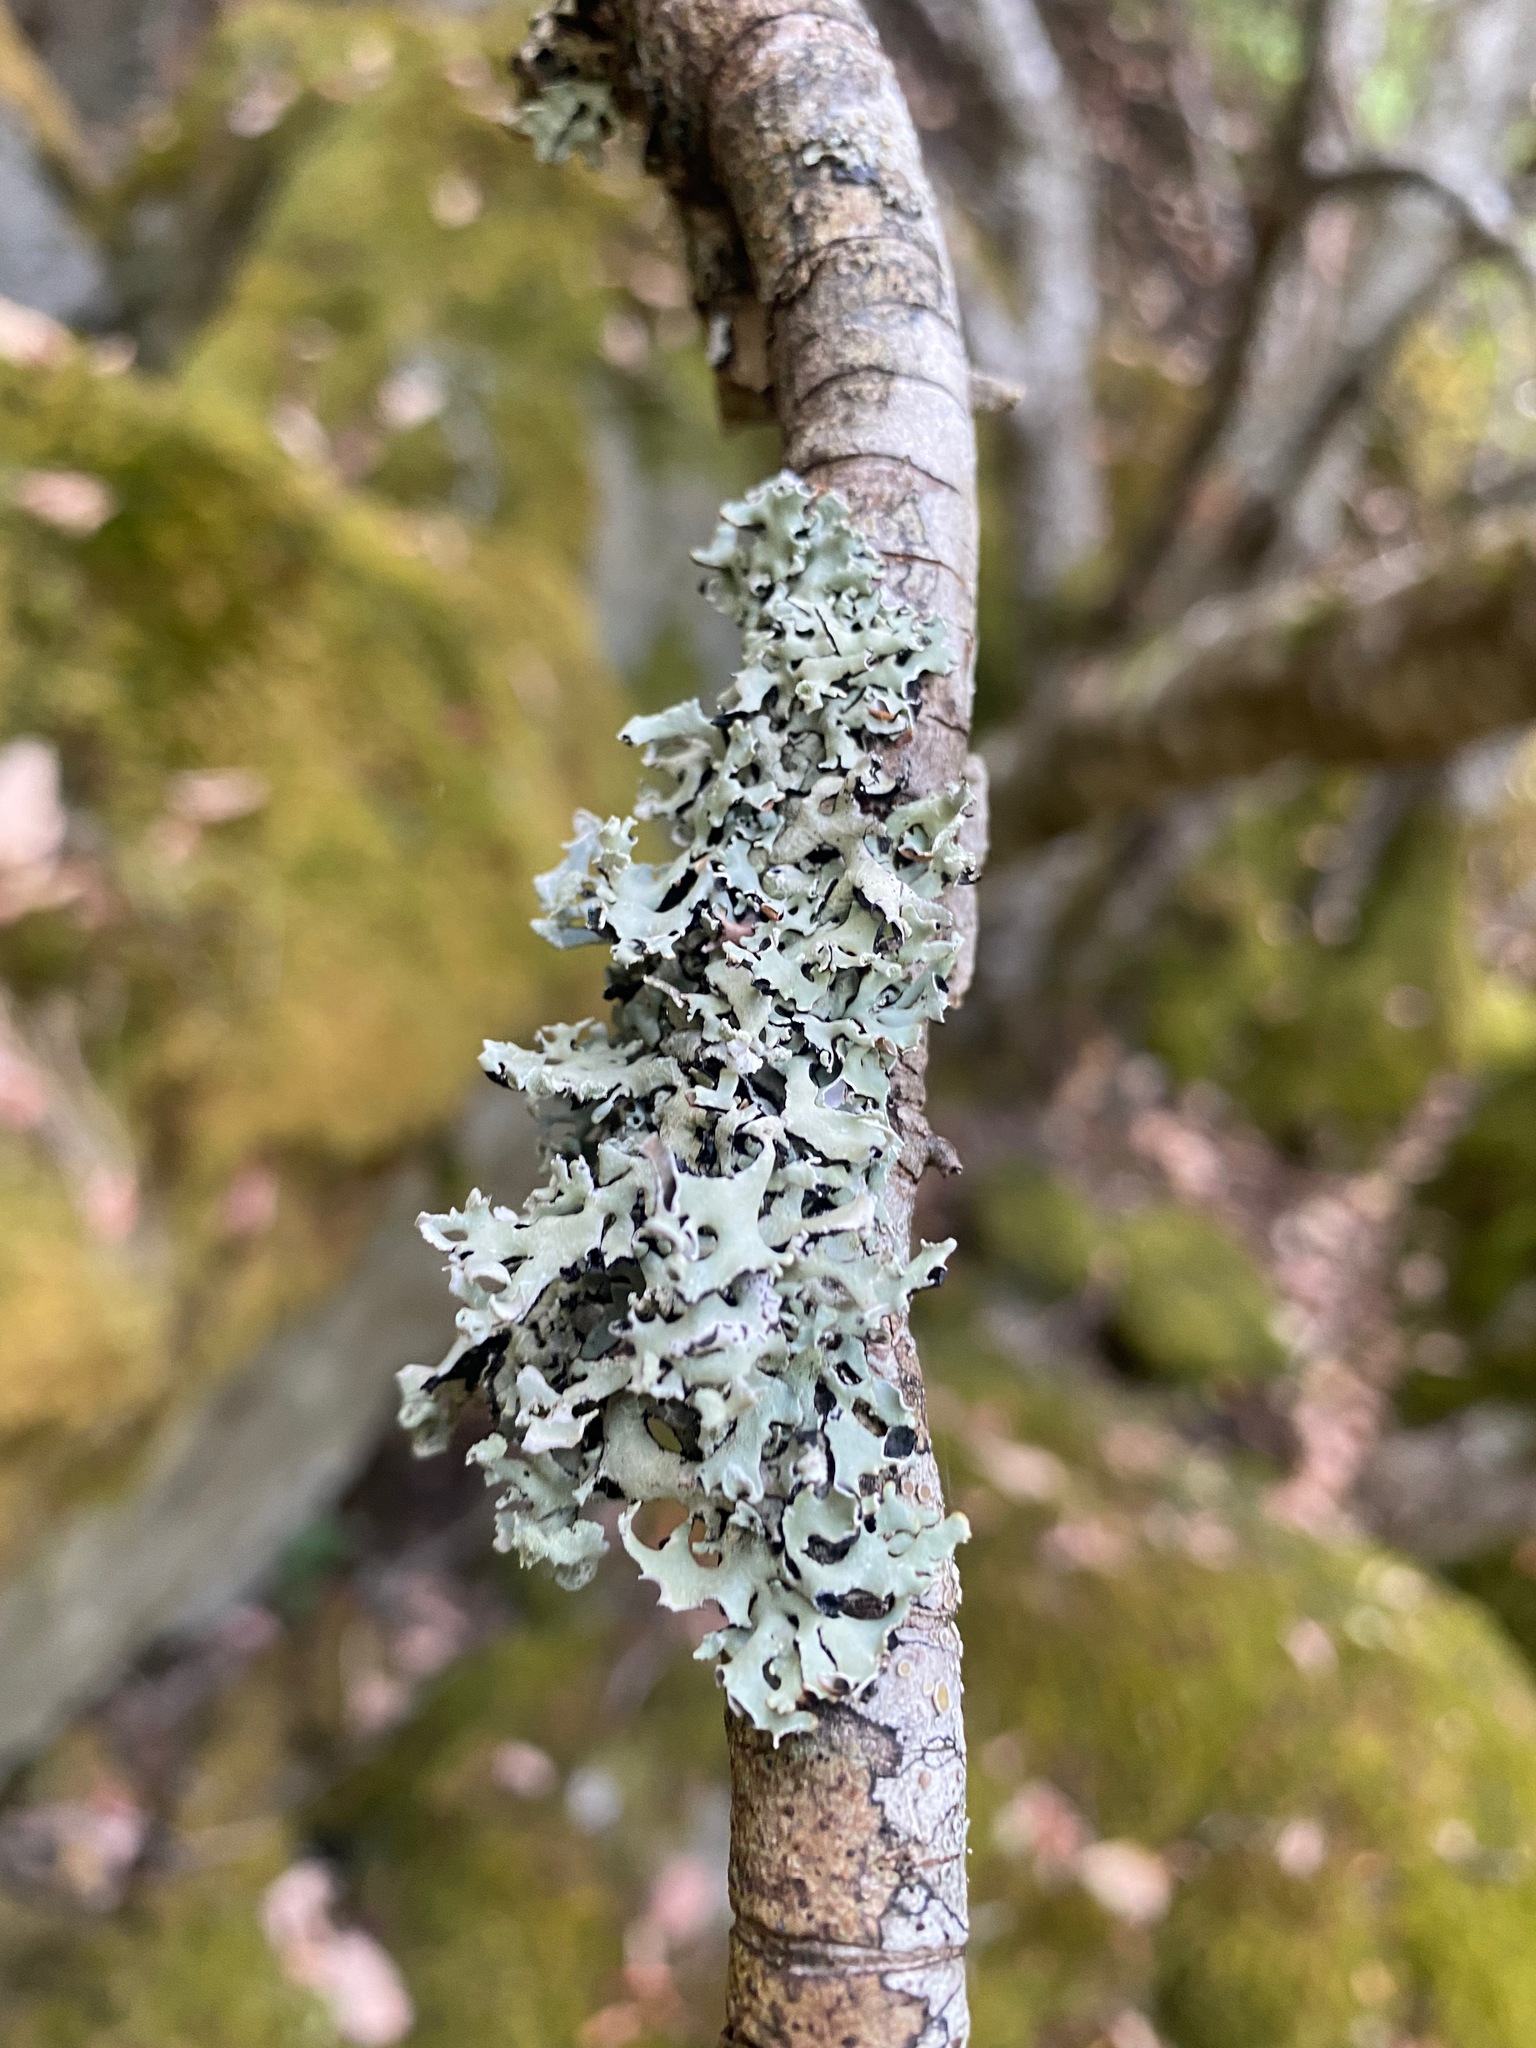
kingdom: Fungi
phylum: Ascomycota
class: Lecanoromycetes
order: Lecanorales
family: Parmeliaceae
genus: Hypogymnia
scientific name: Hypogymnia physodes
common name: Dark crottle
